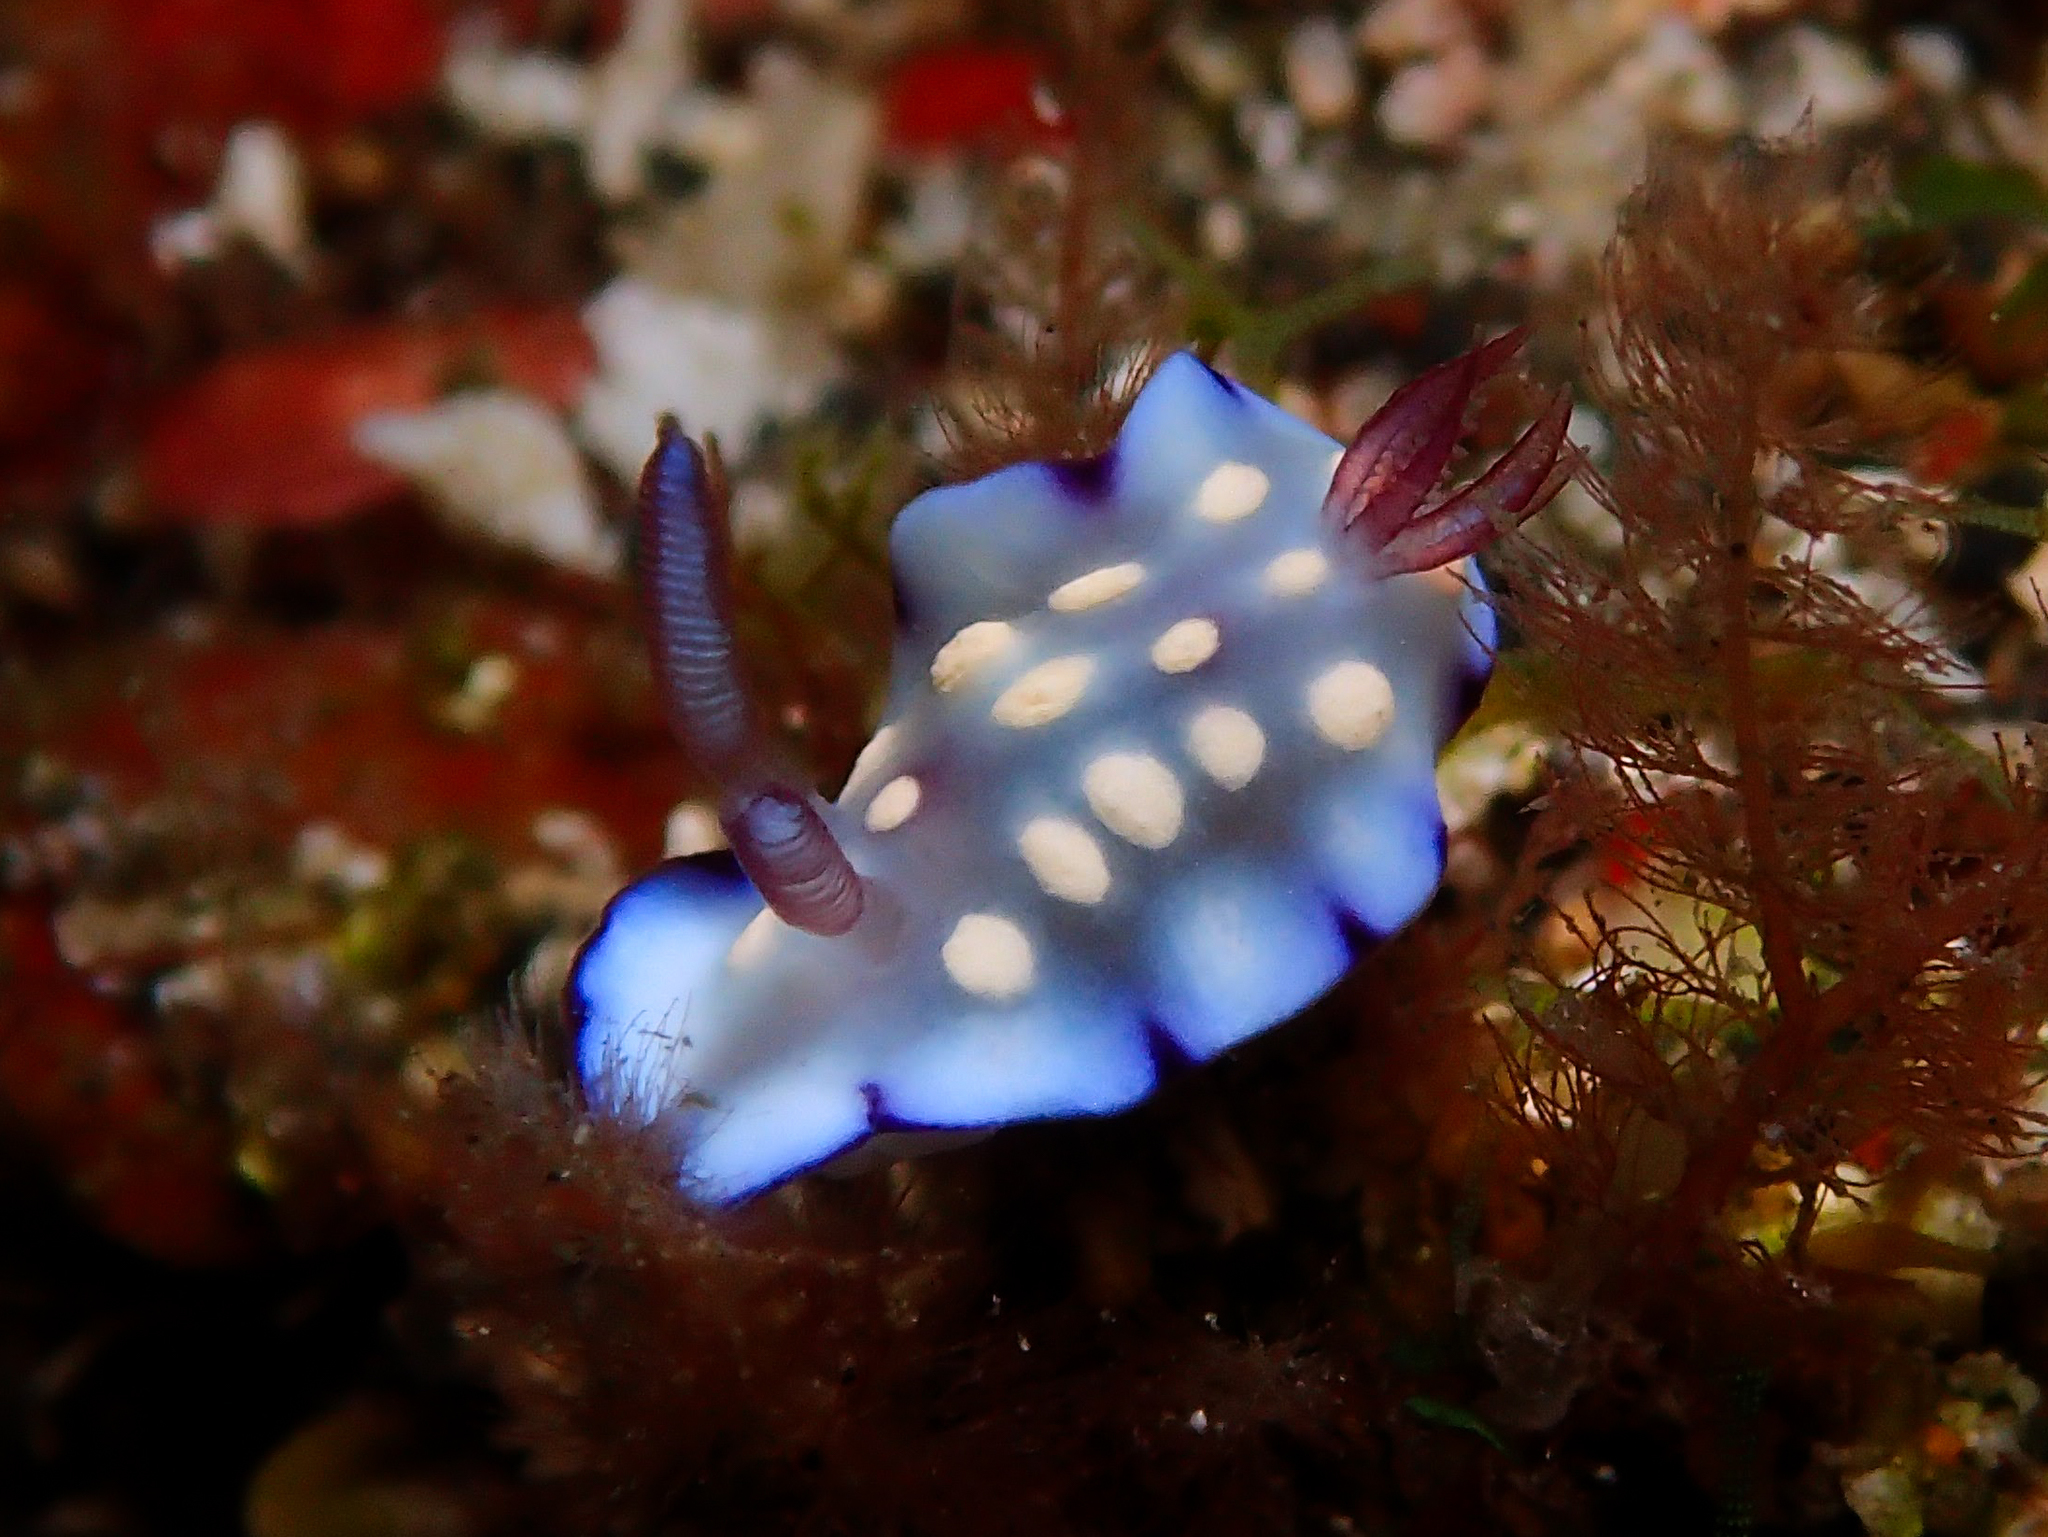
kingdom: Animalia
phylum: Mollusca
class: Gastropoda
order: Nudibranchia
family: Chromodorididae
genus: Goniobranchus
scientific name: Goniobranchus hintuanensis
